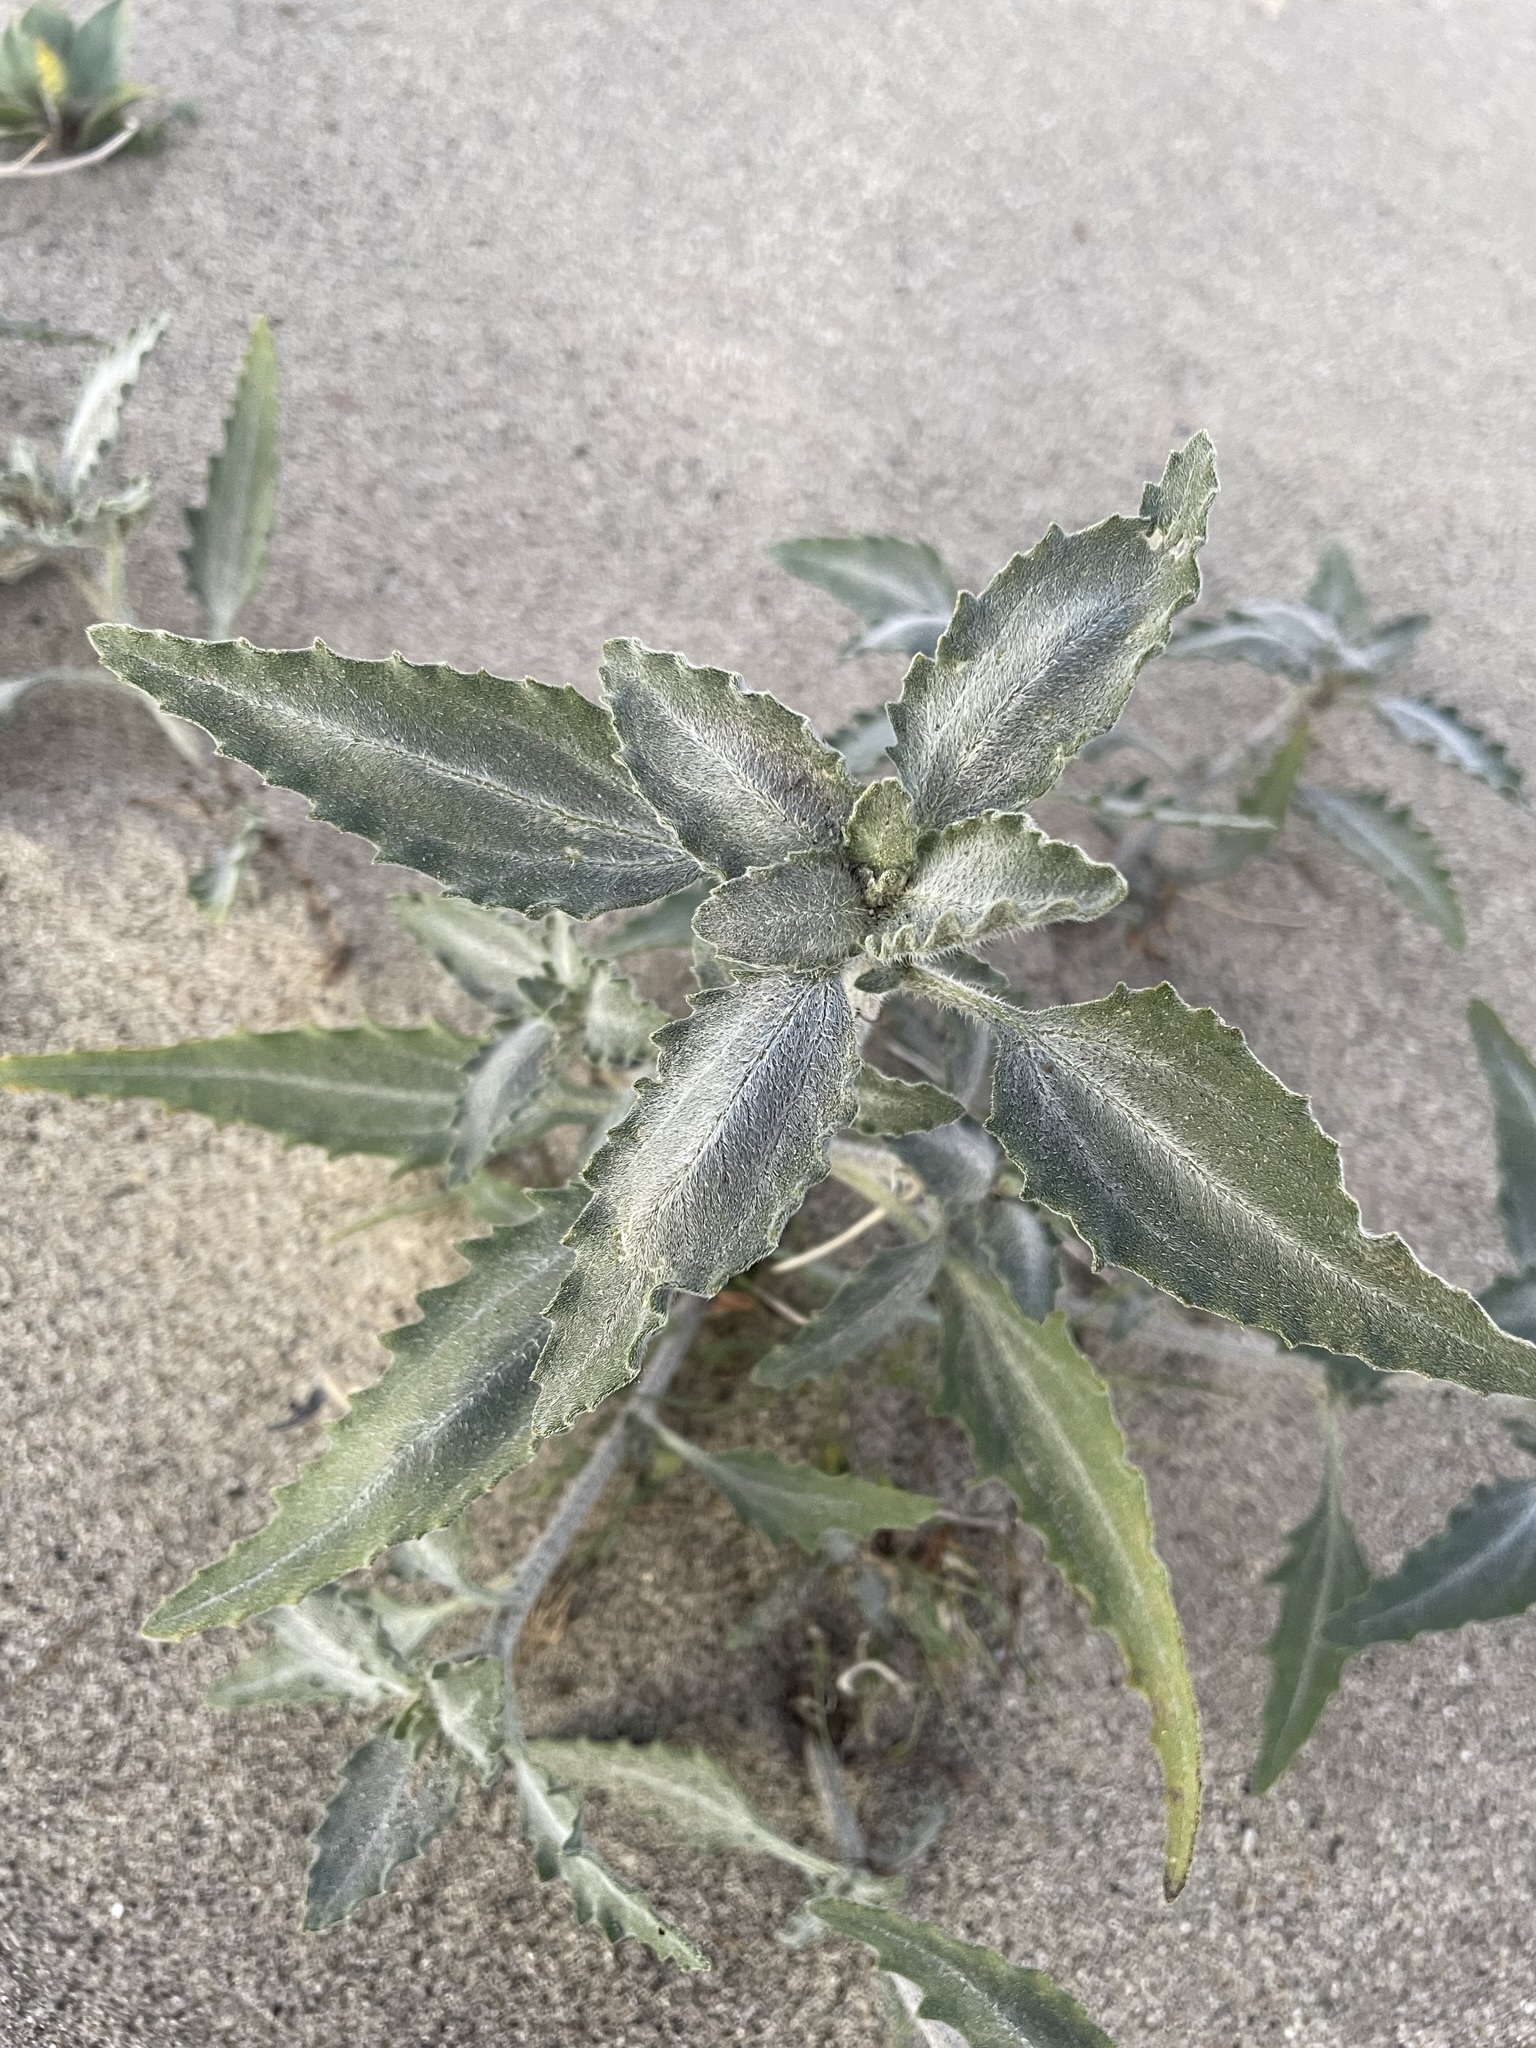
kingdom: Plantae
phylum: Tracheophyta
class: Magnoliopsida
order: Asterales
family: Asteraceae
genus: Dicoria
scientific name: Dicoria canescens
